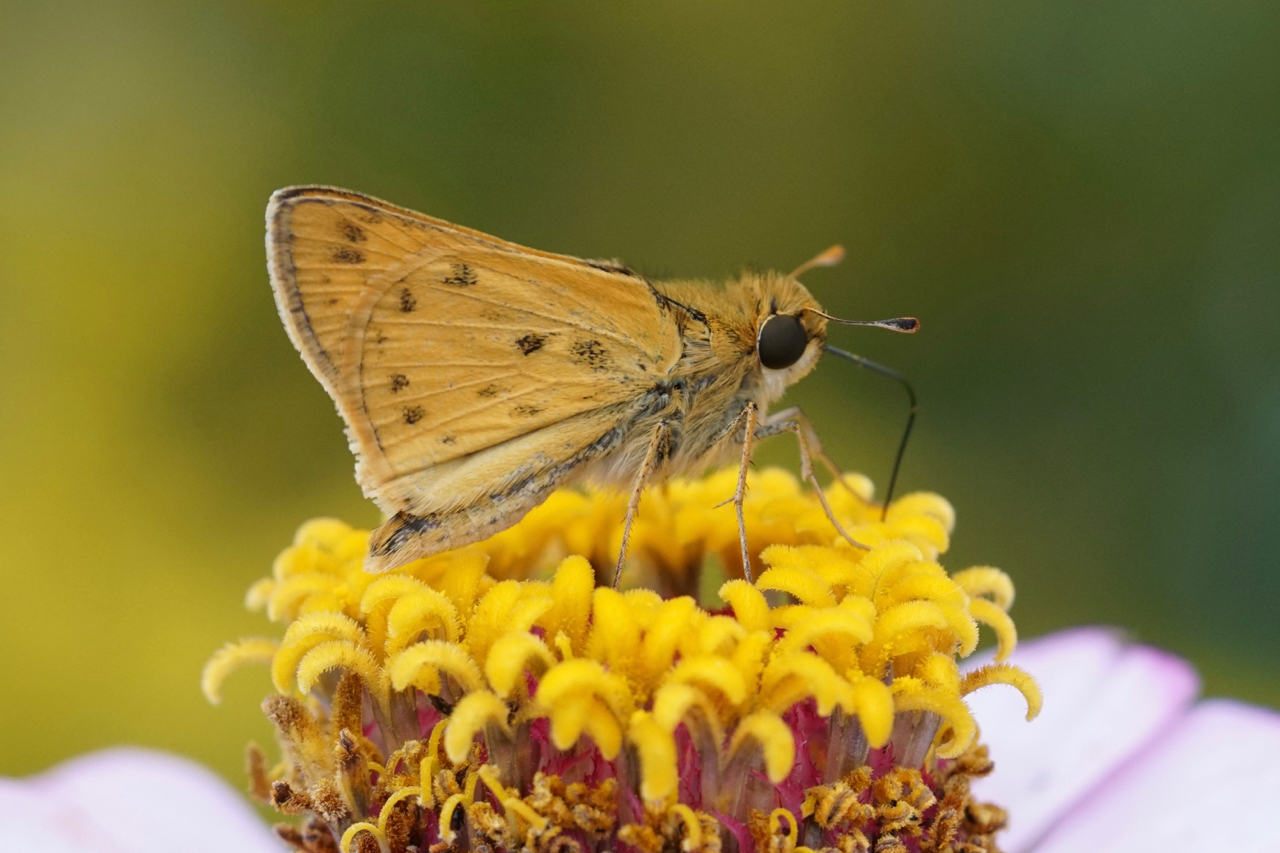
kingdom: Animalia
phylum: Arthropoda
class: Insecta
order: Lepidoptera
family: Hesperiidae
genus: Hylephila
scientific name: Hylephila phyleus
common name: Fiery skipper
